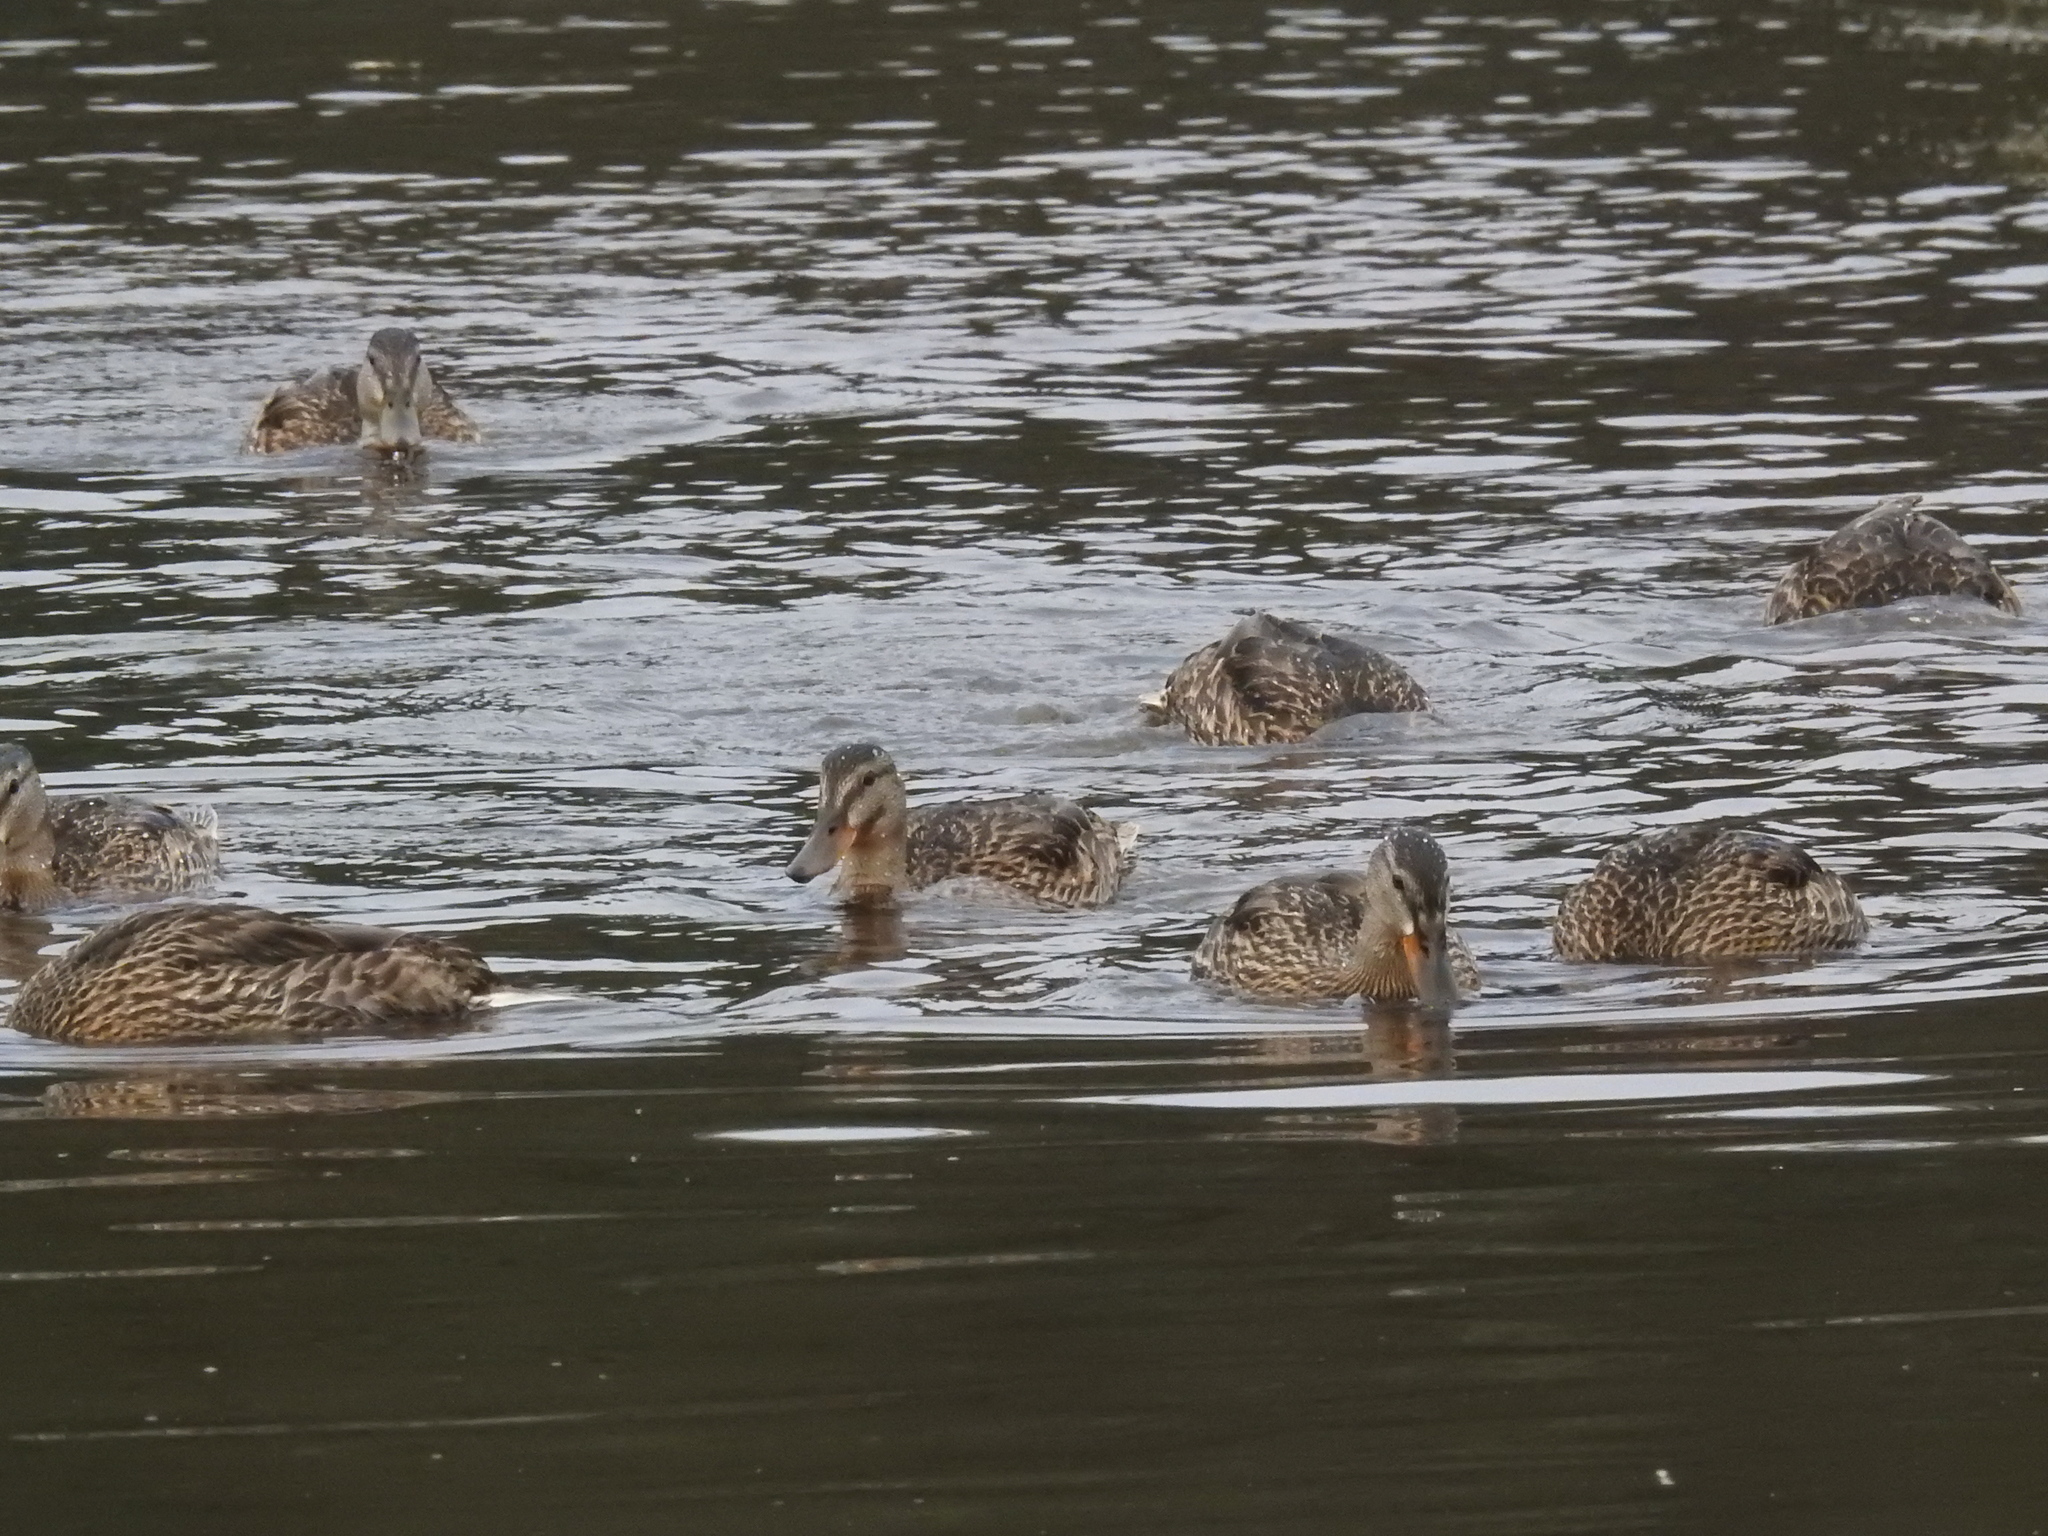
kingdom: Animalia
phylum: Chordata
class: Aves
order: Anseriformes
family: Anatidae
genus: Anas
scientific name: Anas platyrhynchos
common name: Mallard
